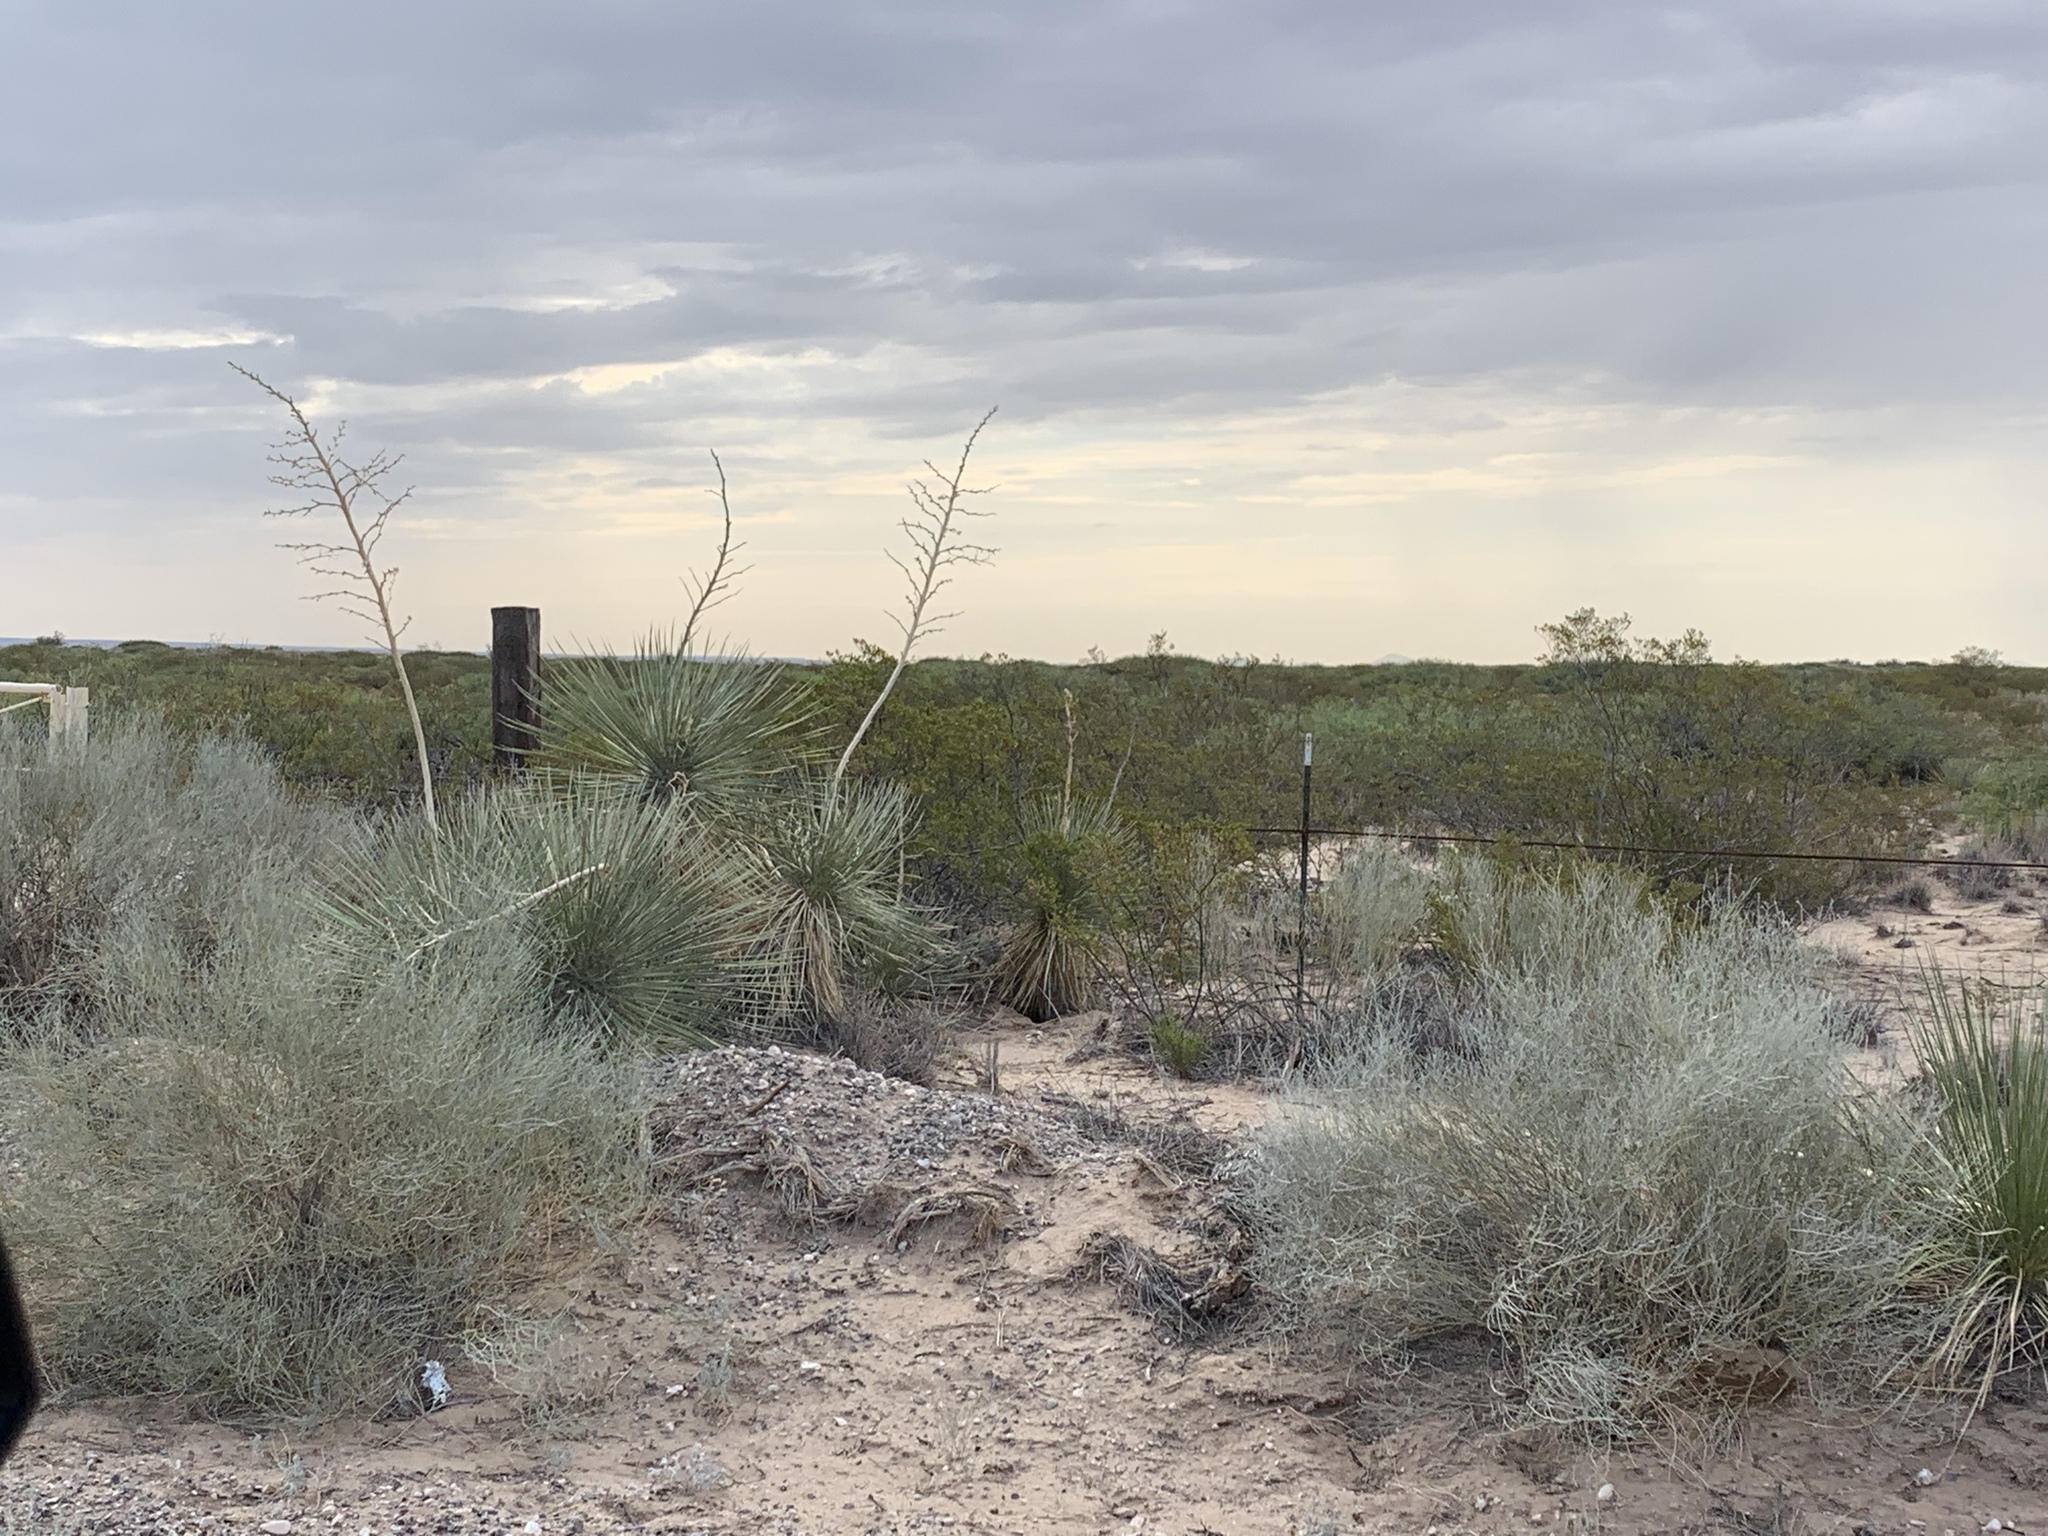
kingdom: Plantae
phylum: Tracheophyta
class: Liliopsida
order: Asparagales
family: Asparagaceae
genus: Yucca
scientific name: Yucca elata
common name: Palmella
